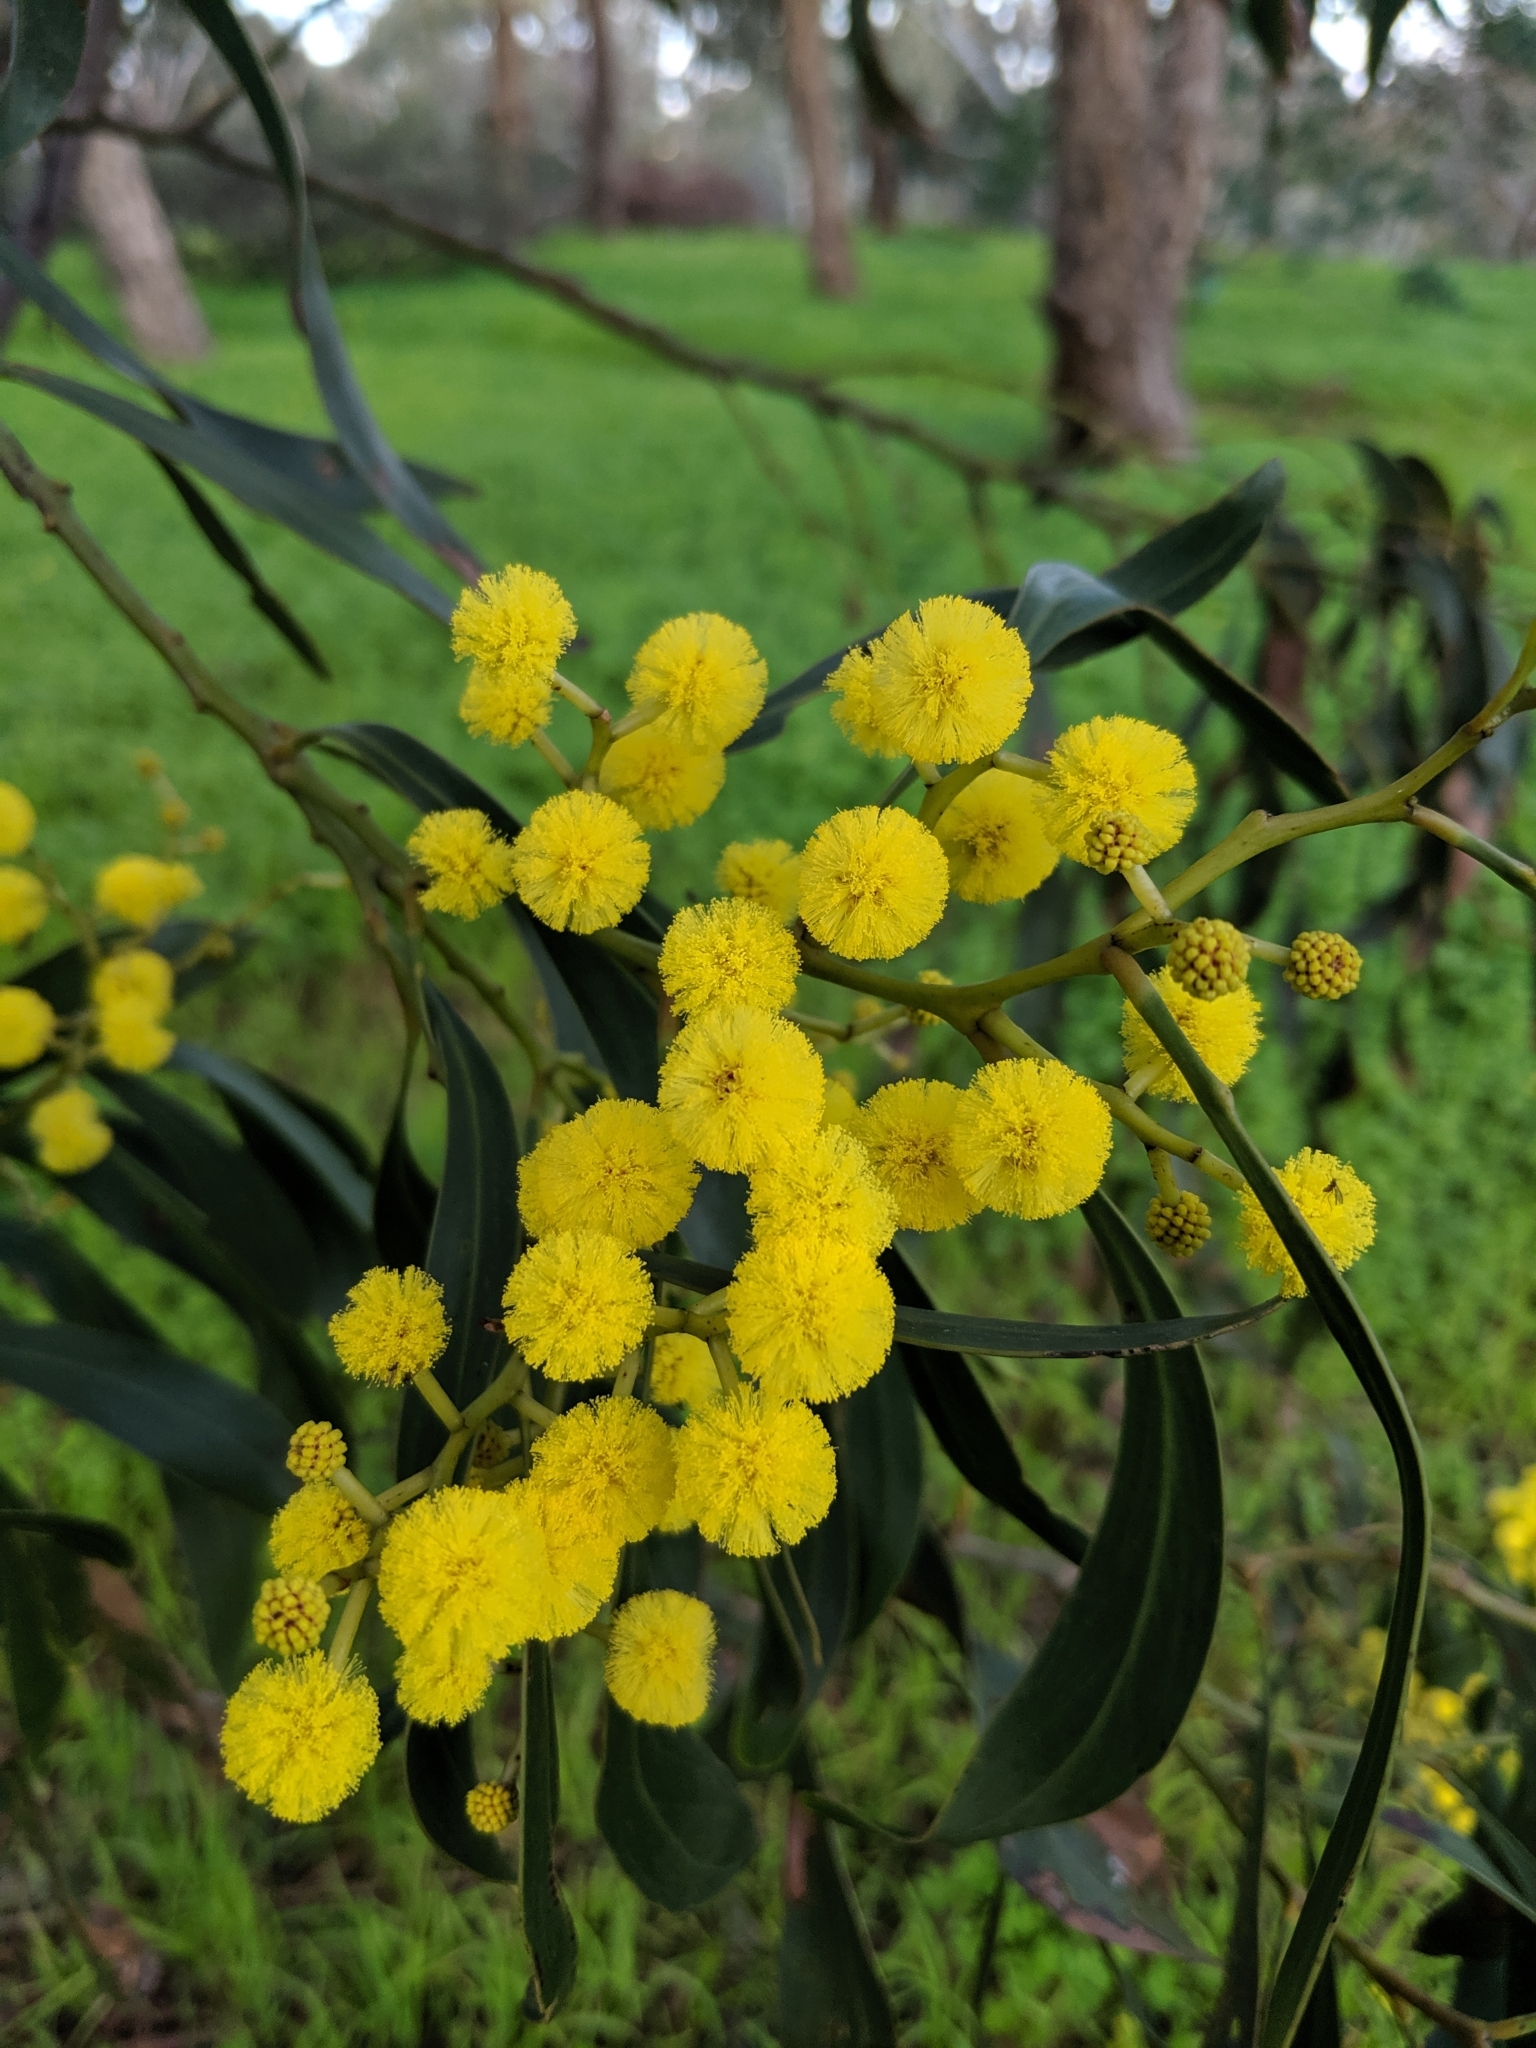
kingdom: Plantae
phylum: Tracheophyta
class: Magnoliopsida
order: Fabales
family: Fabaceae
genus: Acacia
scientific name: Acacia pycnantha
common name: Golden wattle
